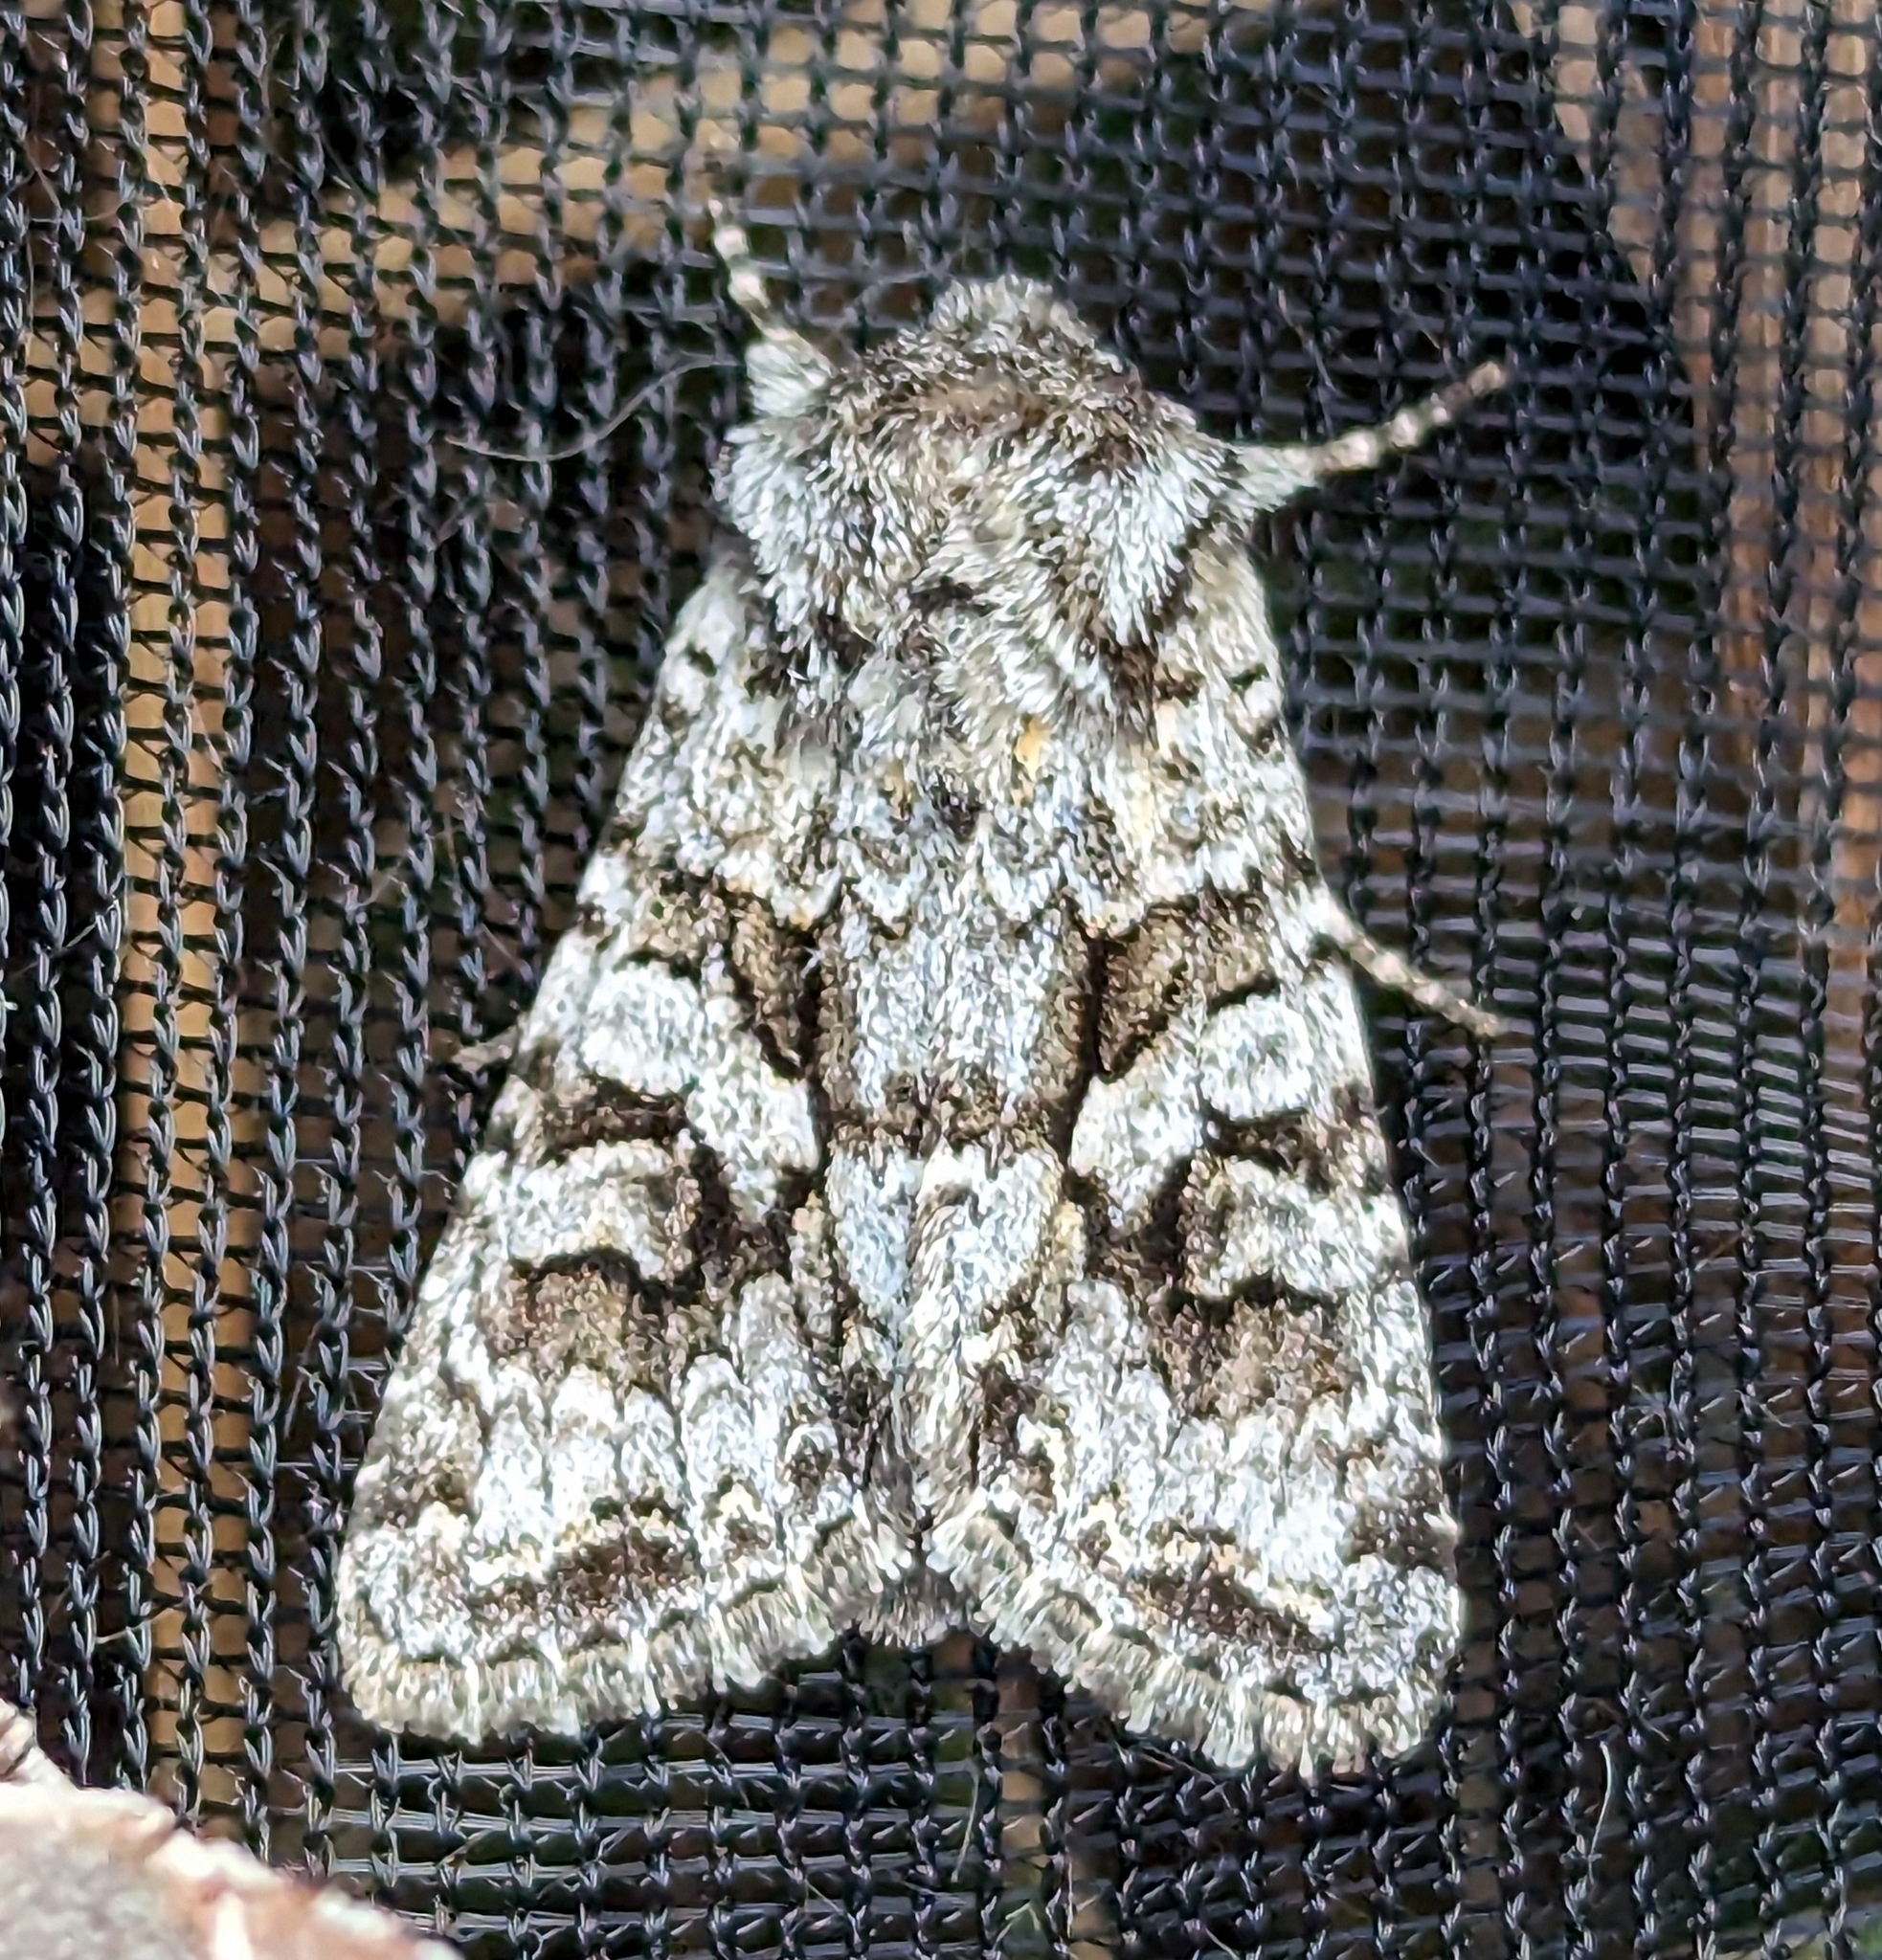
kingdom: Animalia
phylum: Arthropoda
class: Insecta
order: Lepidoptera
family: Noctuidae
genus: Hada
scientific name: Hada sutrina
